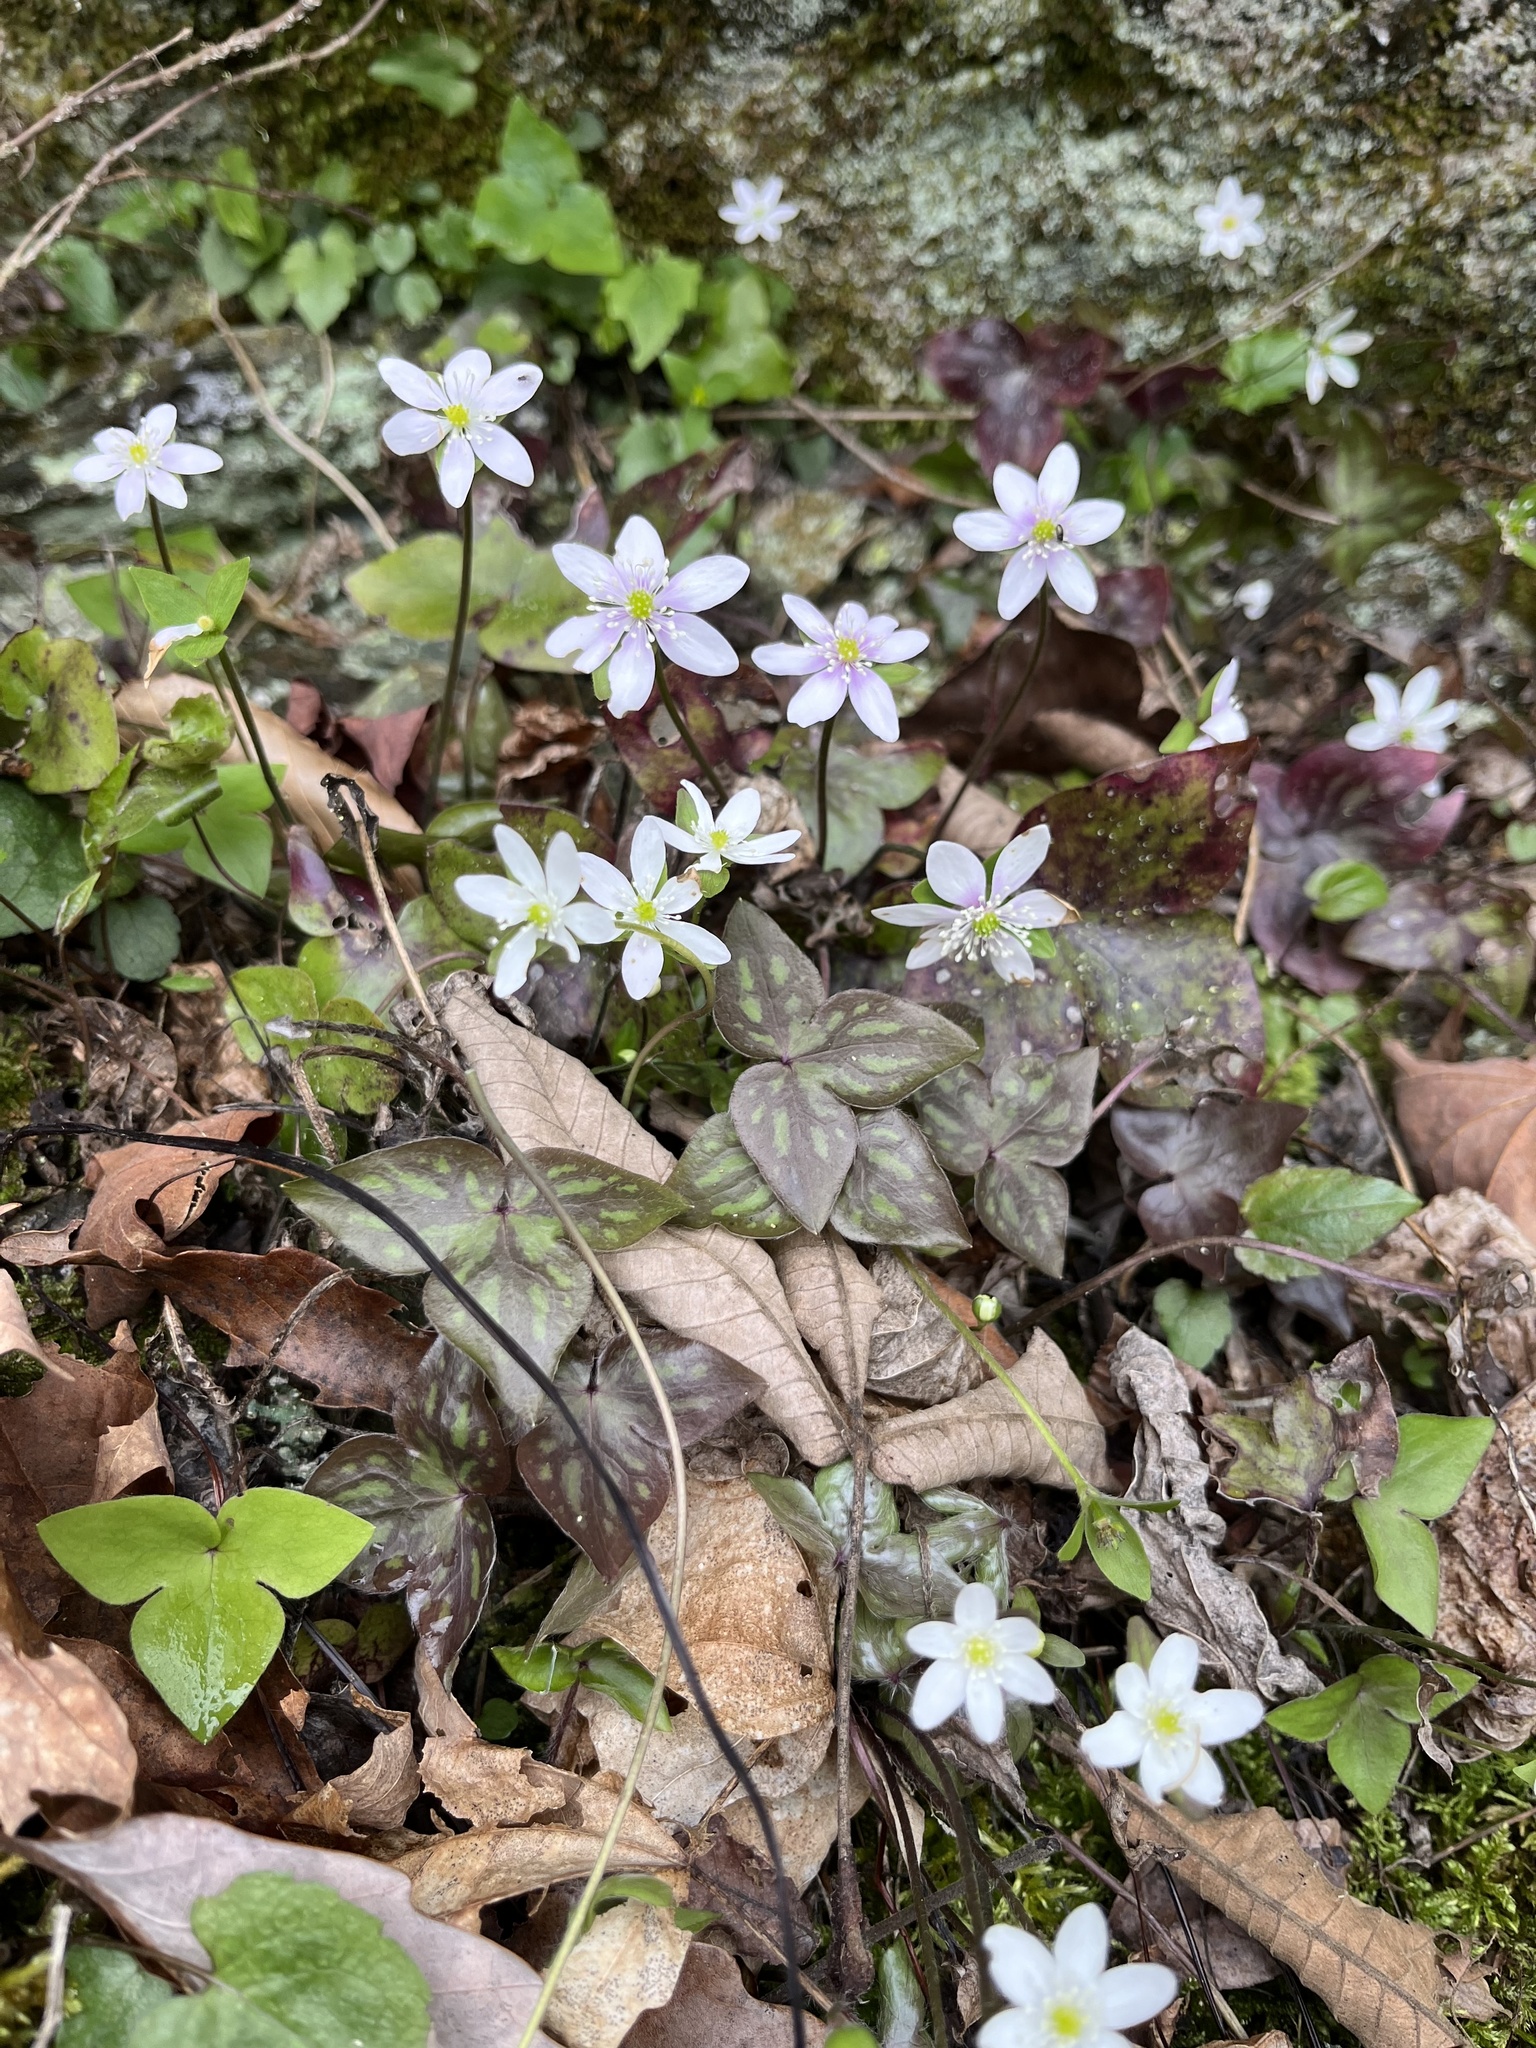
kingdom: Plantae
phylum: Tracheophyta
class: Magnoliopsida
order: Ranunculales
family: Ranunculaceae
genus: Hepatica
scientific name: Hepatica acutiloba
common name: Sharp-lobed hepatica
